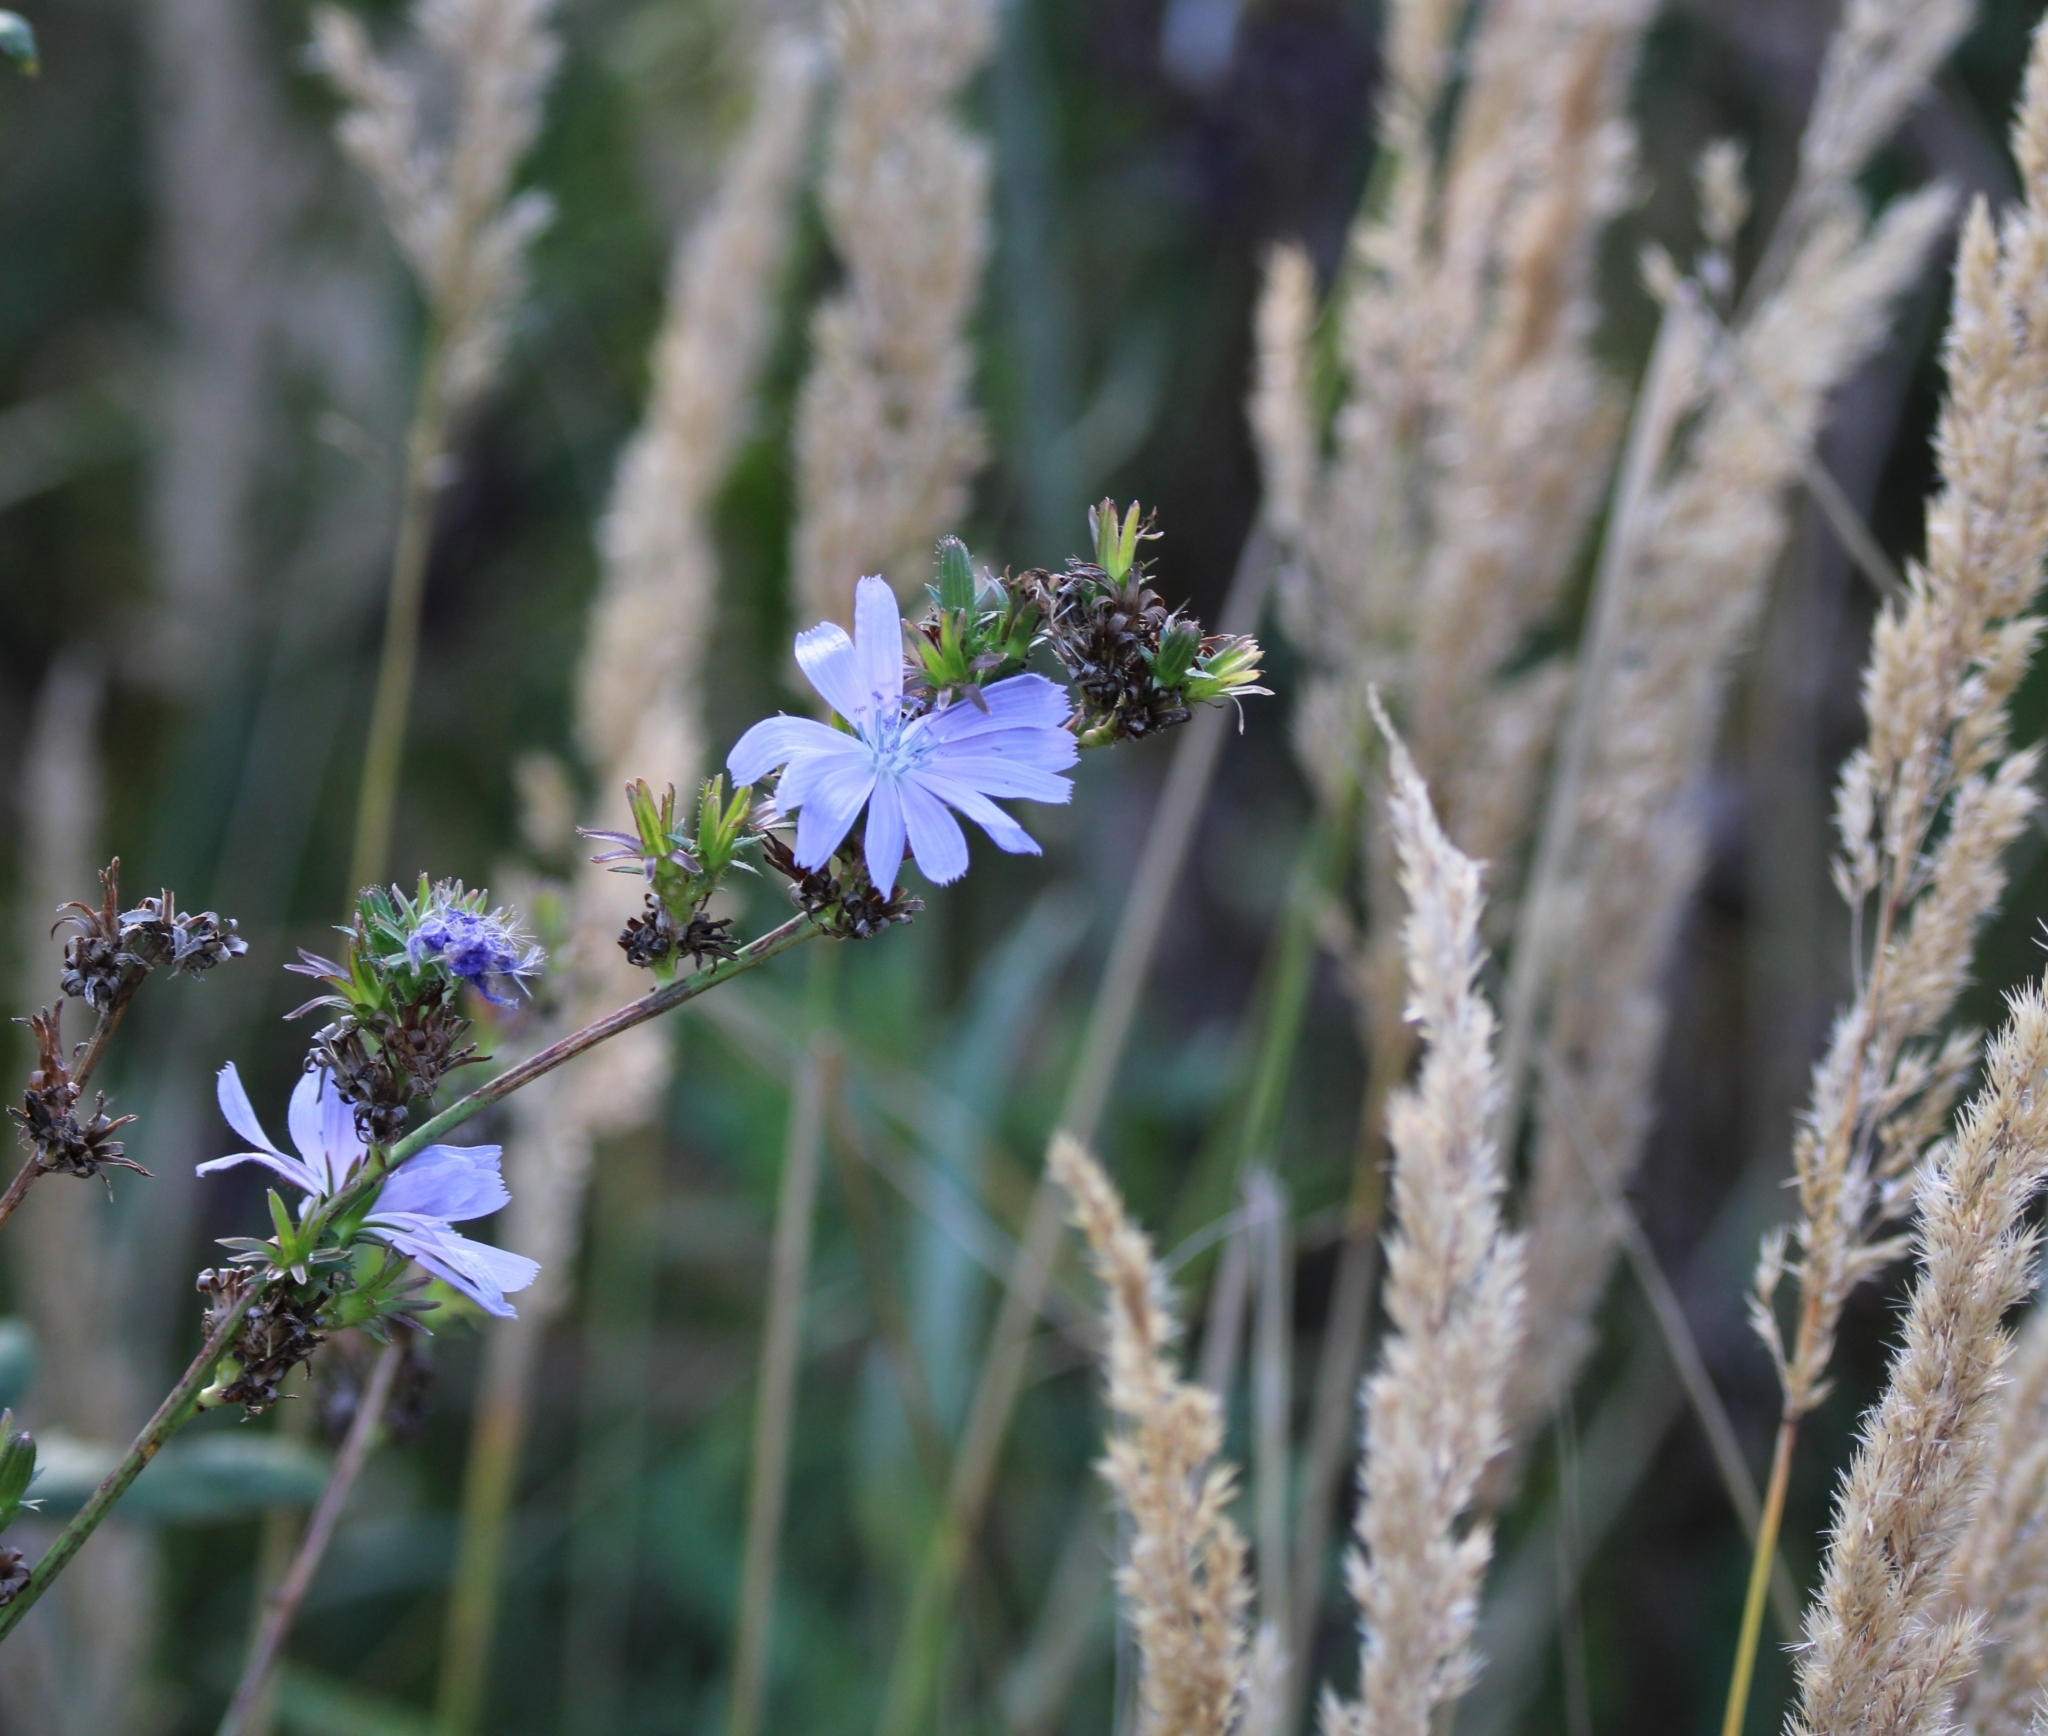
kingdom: Plantae
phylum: Tracheophyta
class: Magnoliopsida
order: Asterales
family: Asteraceae
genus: Cichorium
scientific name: Cichorium intybus
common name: Chicory
